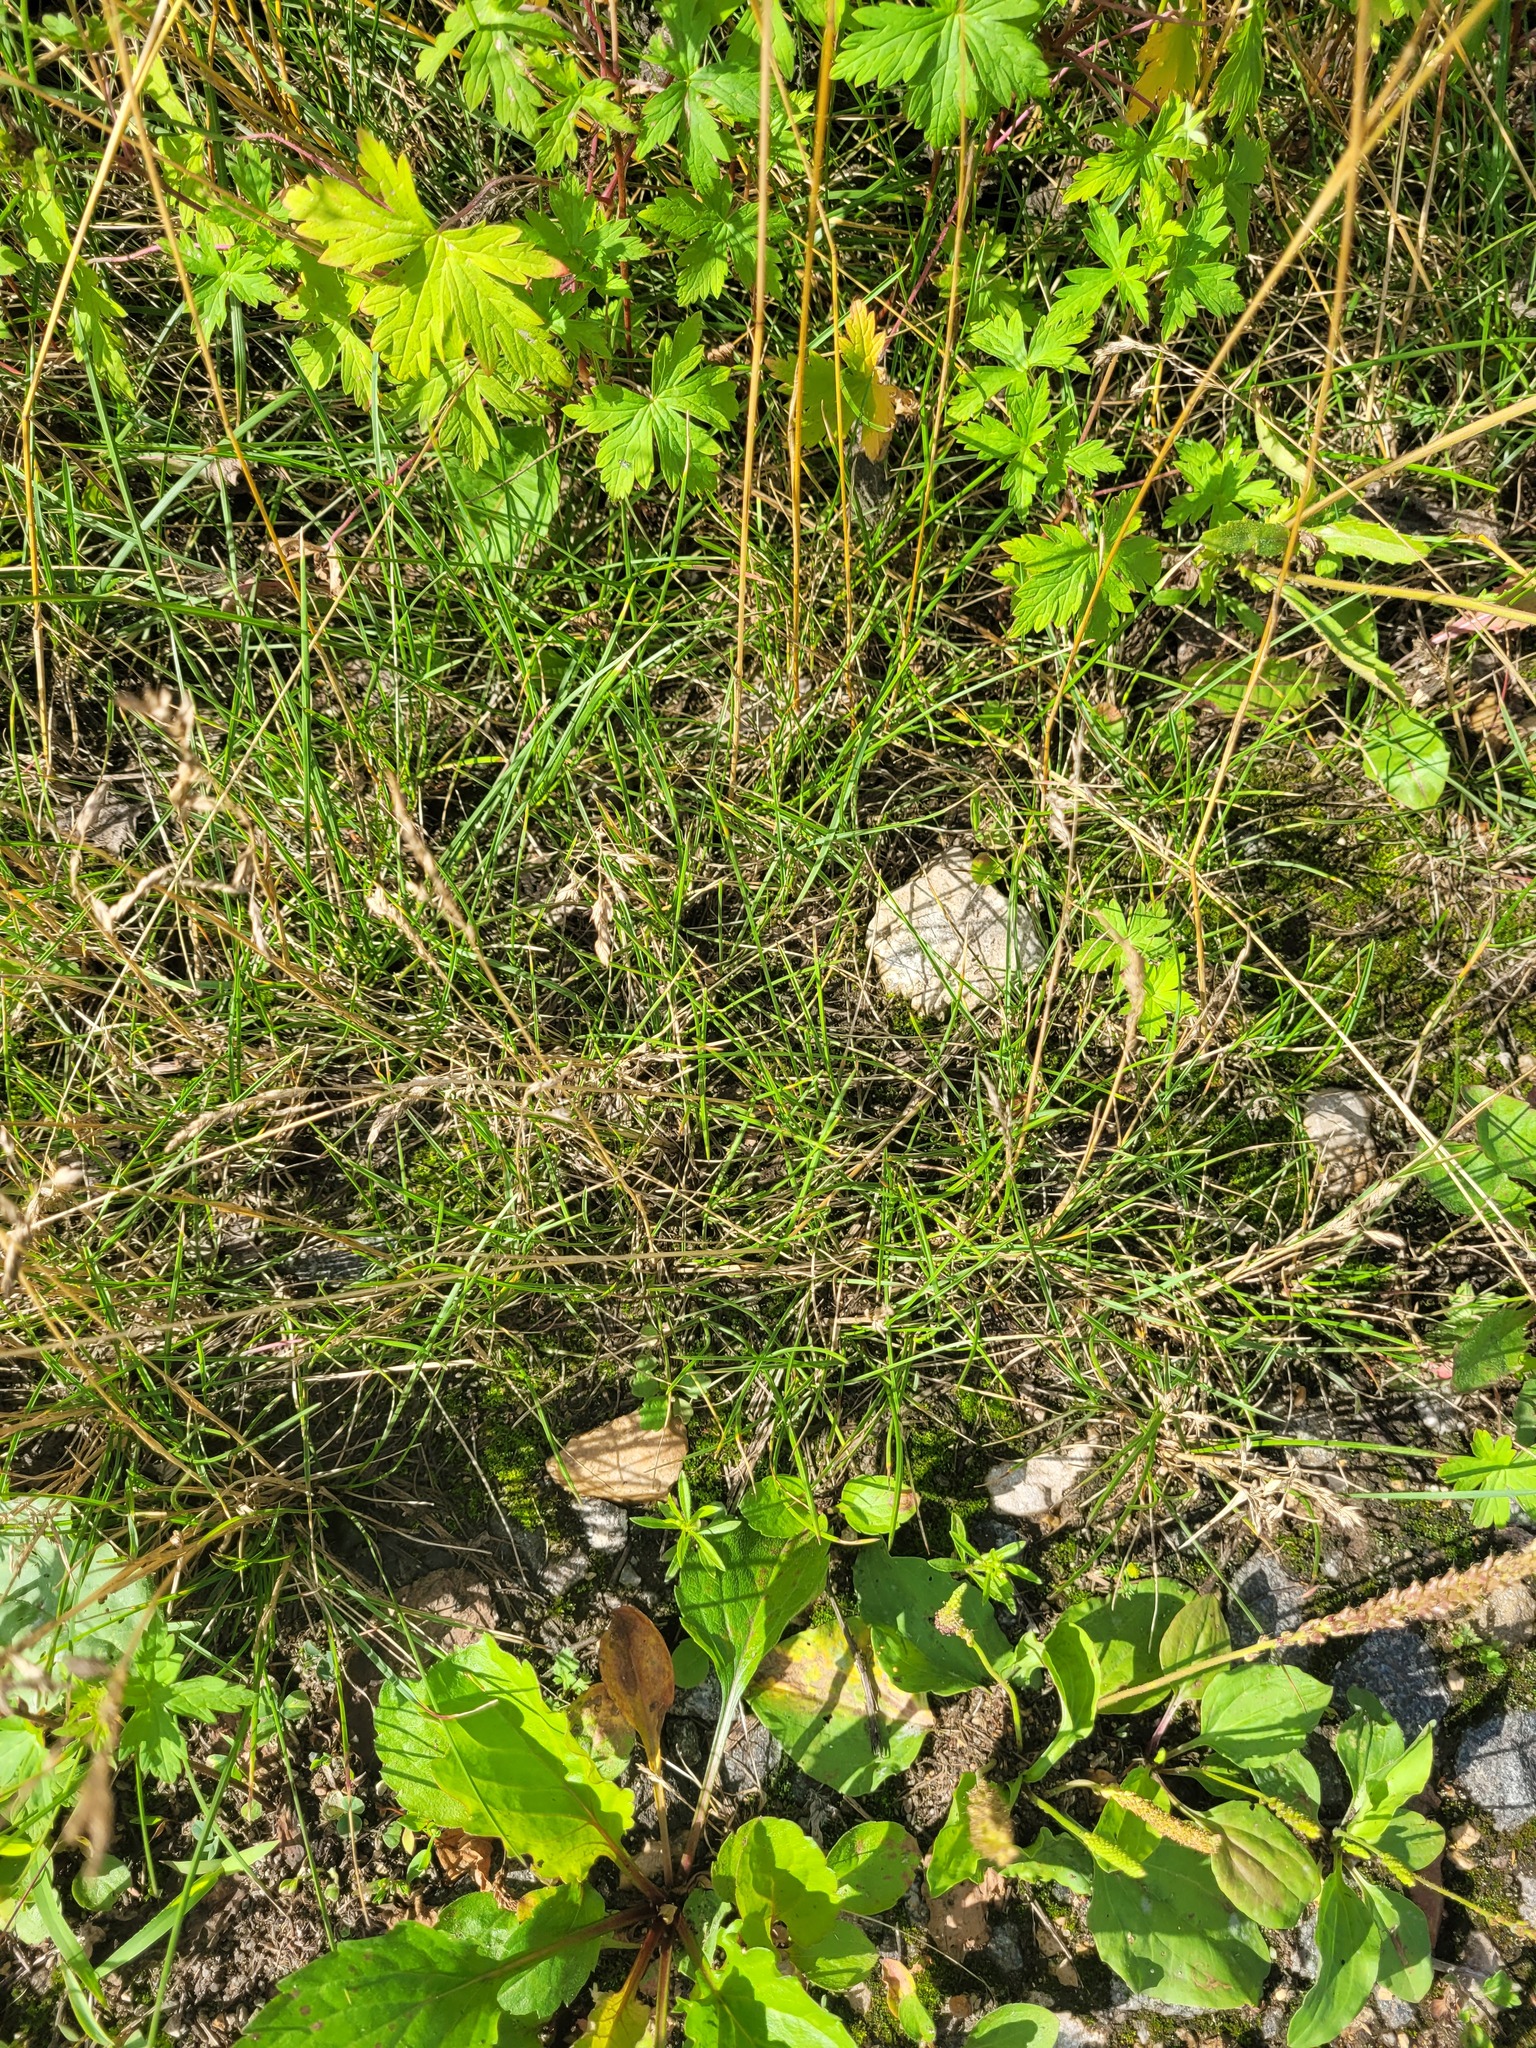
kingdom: Plantae
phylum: Tracheophyta
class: Liliopsida
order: Poales
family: Poaceae
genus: Poa
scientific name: Poa angustifolia
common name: Narrow-leaved meadow-grass
